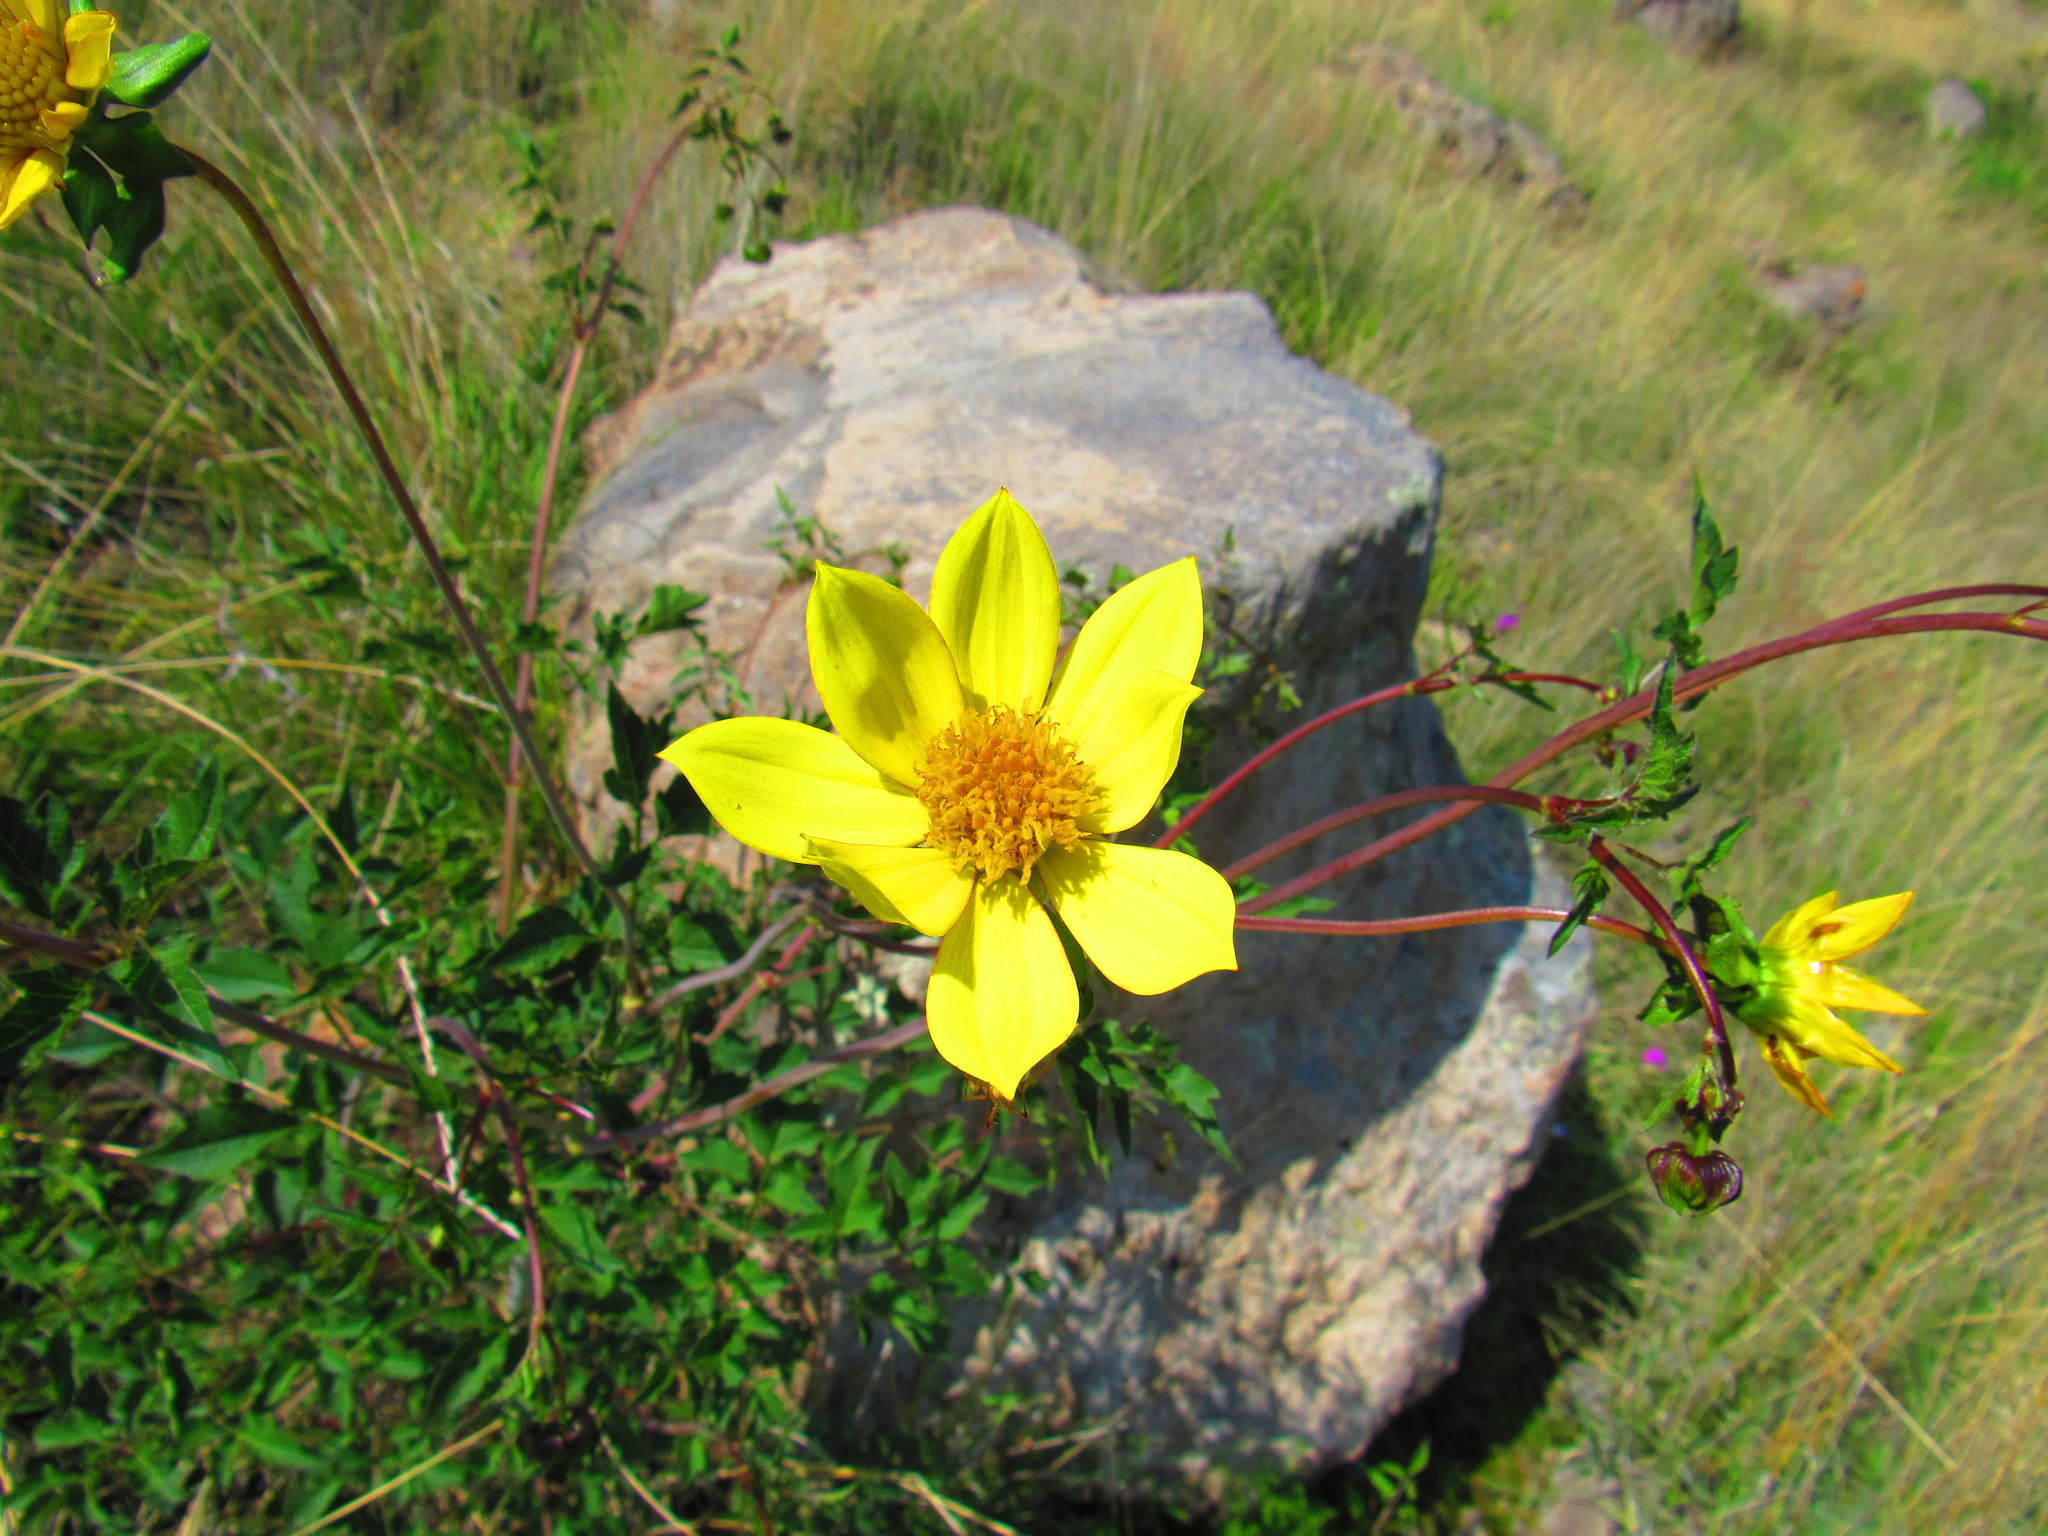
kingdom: Plantae
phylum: Tracheophyta
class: Magnoliopsida
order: Asterales
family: Asteraceae
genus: Dahlia
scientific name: Dahlia coccinea
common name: Red dahlia
